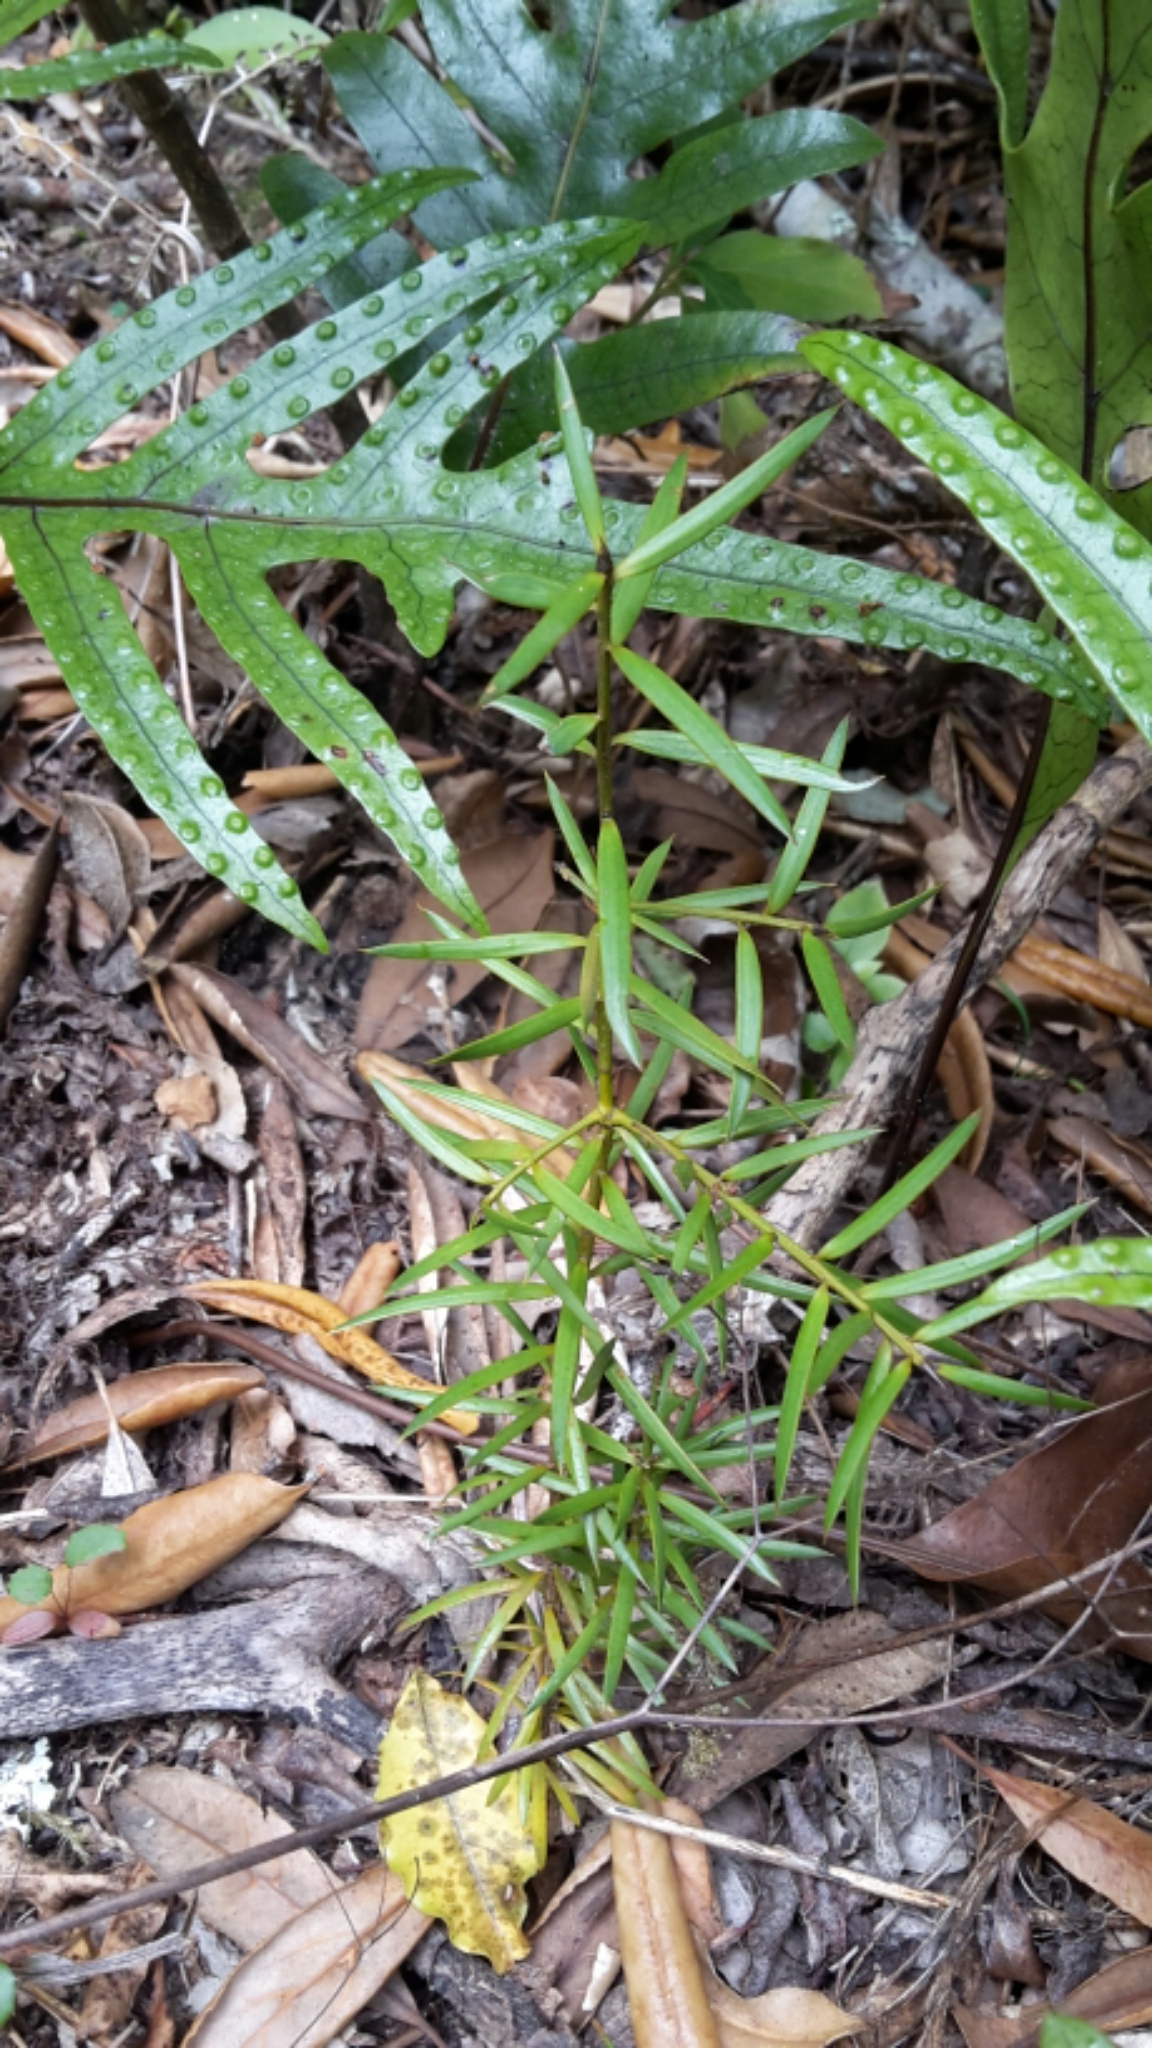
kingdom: Plantae
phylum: Tracheophyta
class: Pinopsida
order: Pinales
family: Podocarpaceae
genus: Podocarpus
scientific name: Podocarpus totara
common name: Totara
